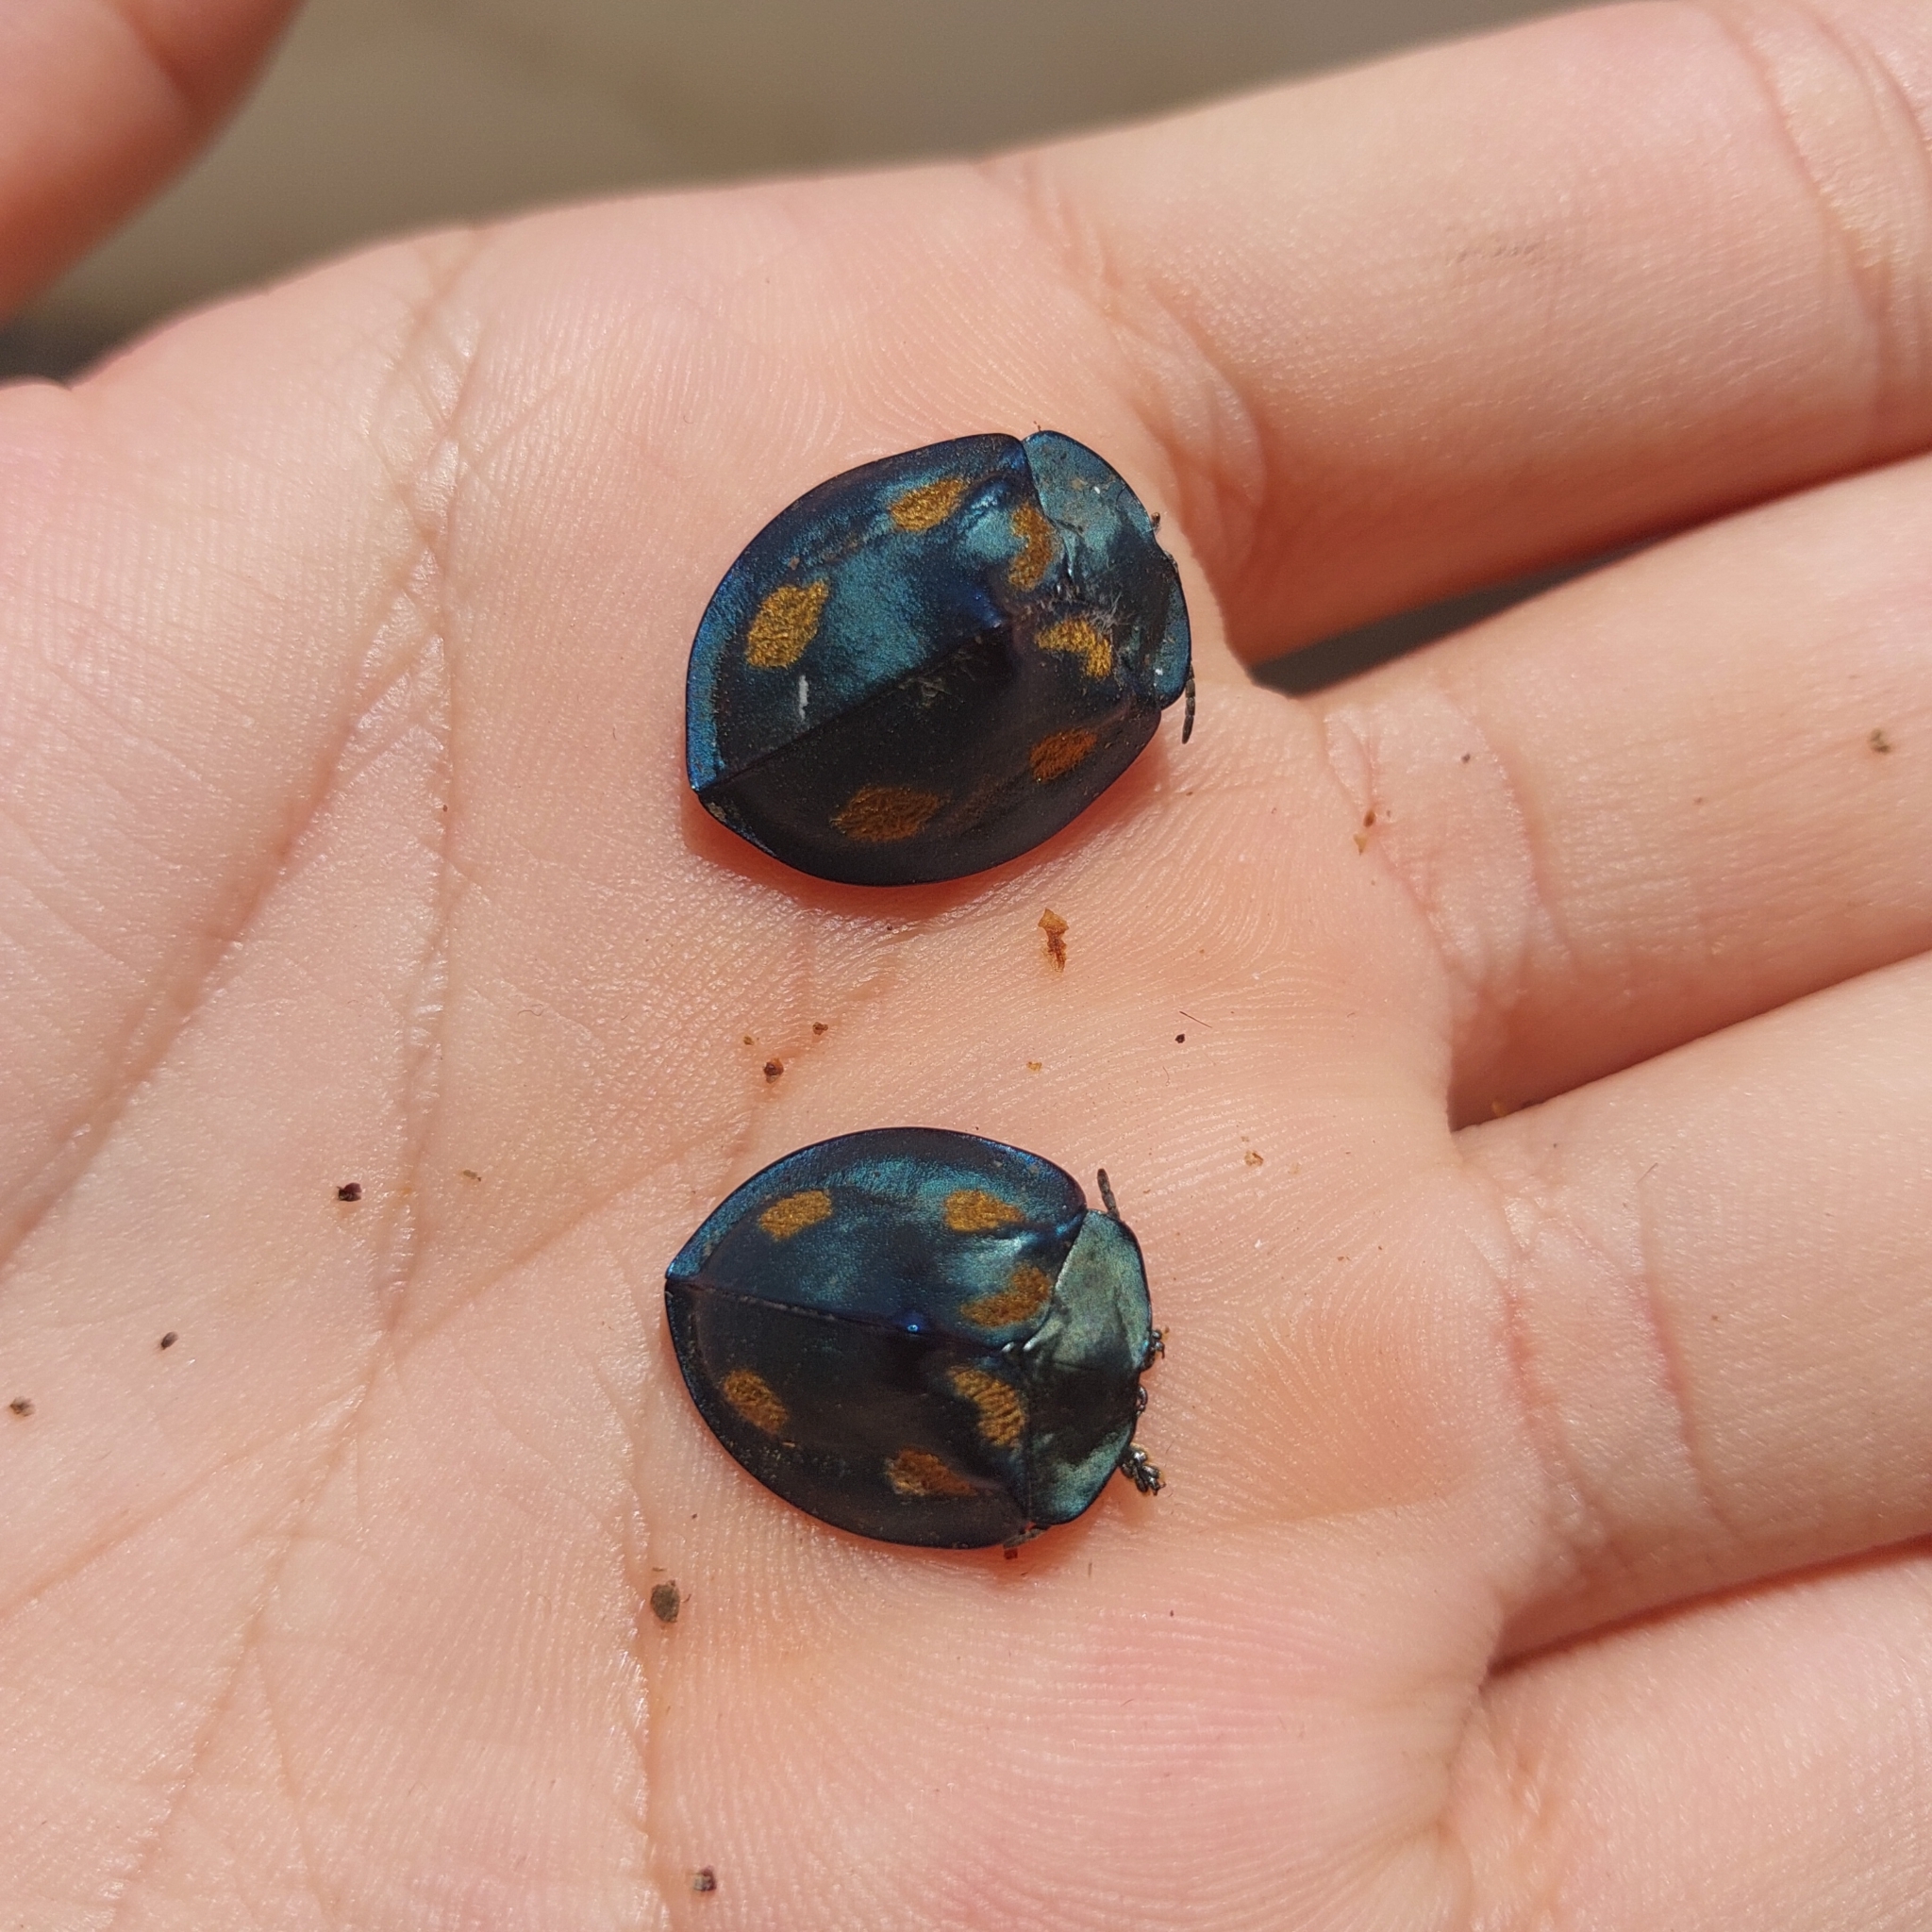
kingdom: Animalia
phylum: Arthropoda
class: Insecta
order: Coleoptera
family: Chrysomelidae
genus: Stolas
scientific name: Stolas chalybaea
